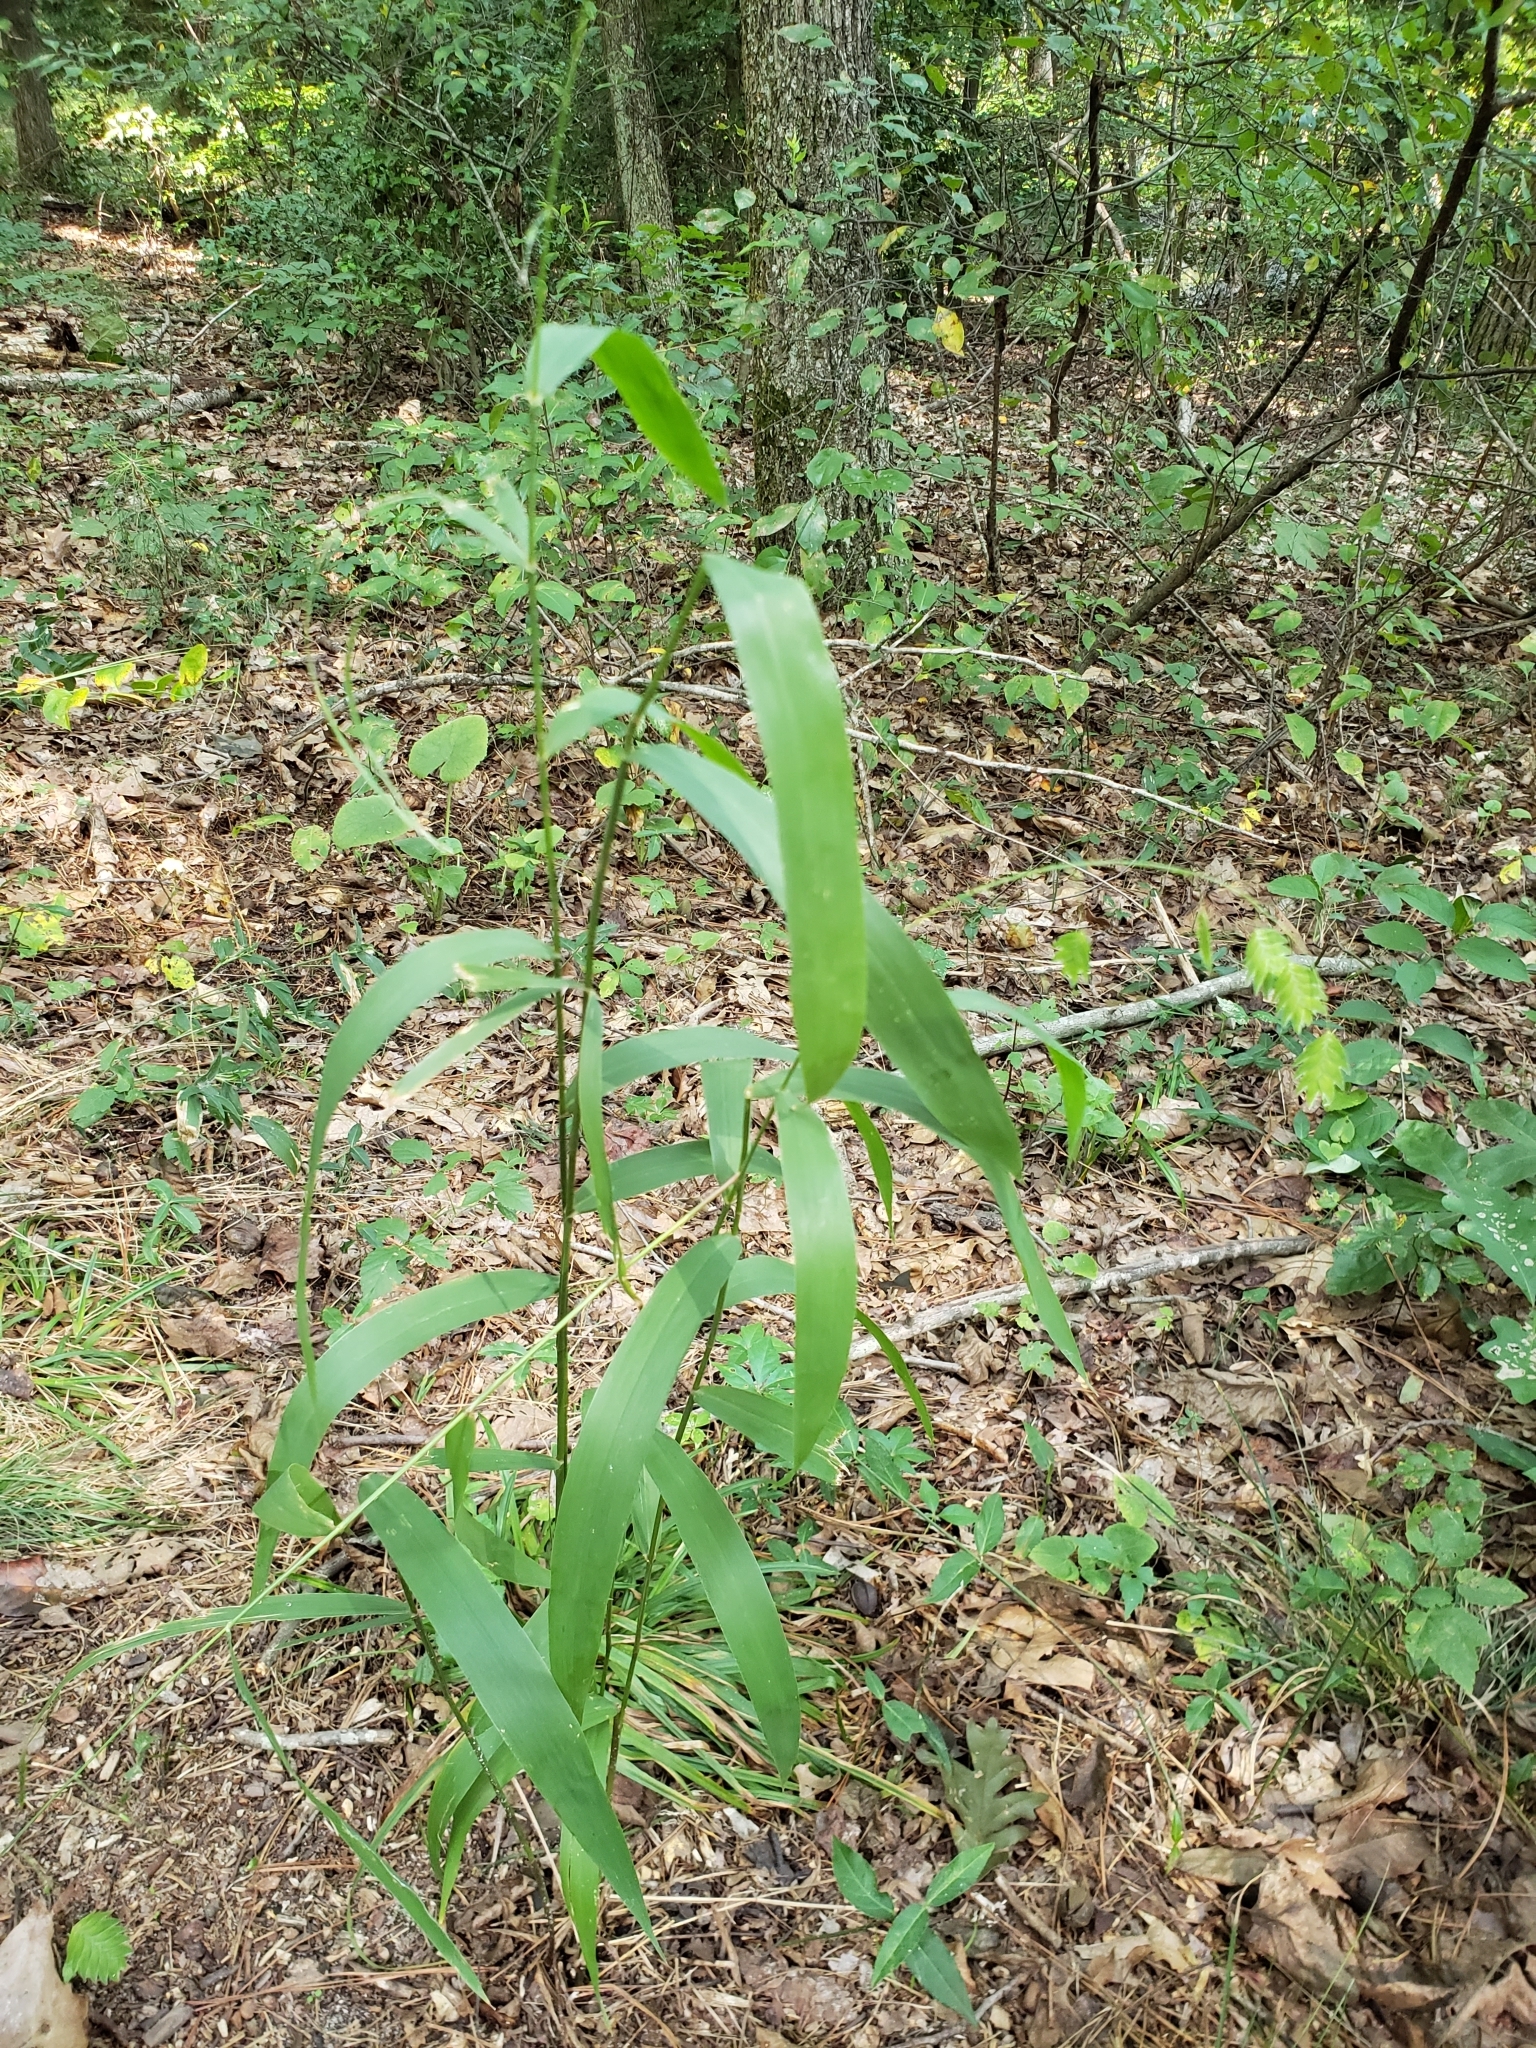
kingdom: Plantae
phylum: Tracheophyta
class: Liliopsida
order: Poales
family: Poaceae
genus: Chasmanthium
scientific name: Chasmanthium latifolium
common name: Broad-leaved chasmanthium
